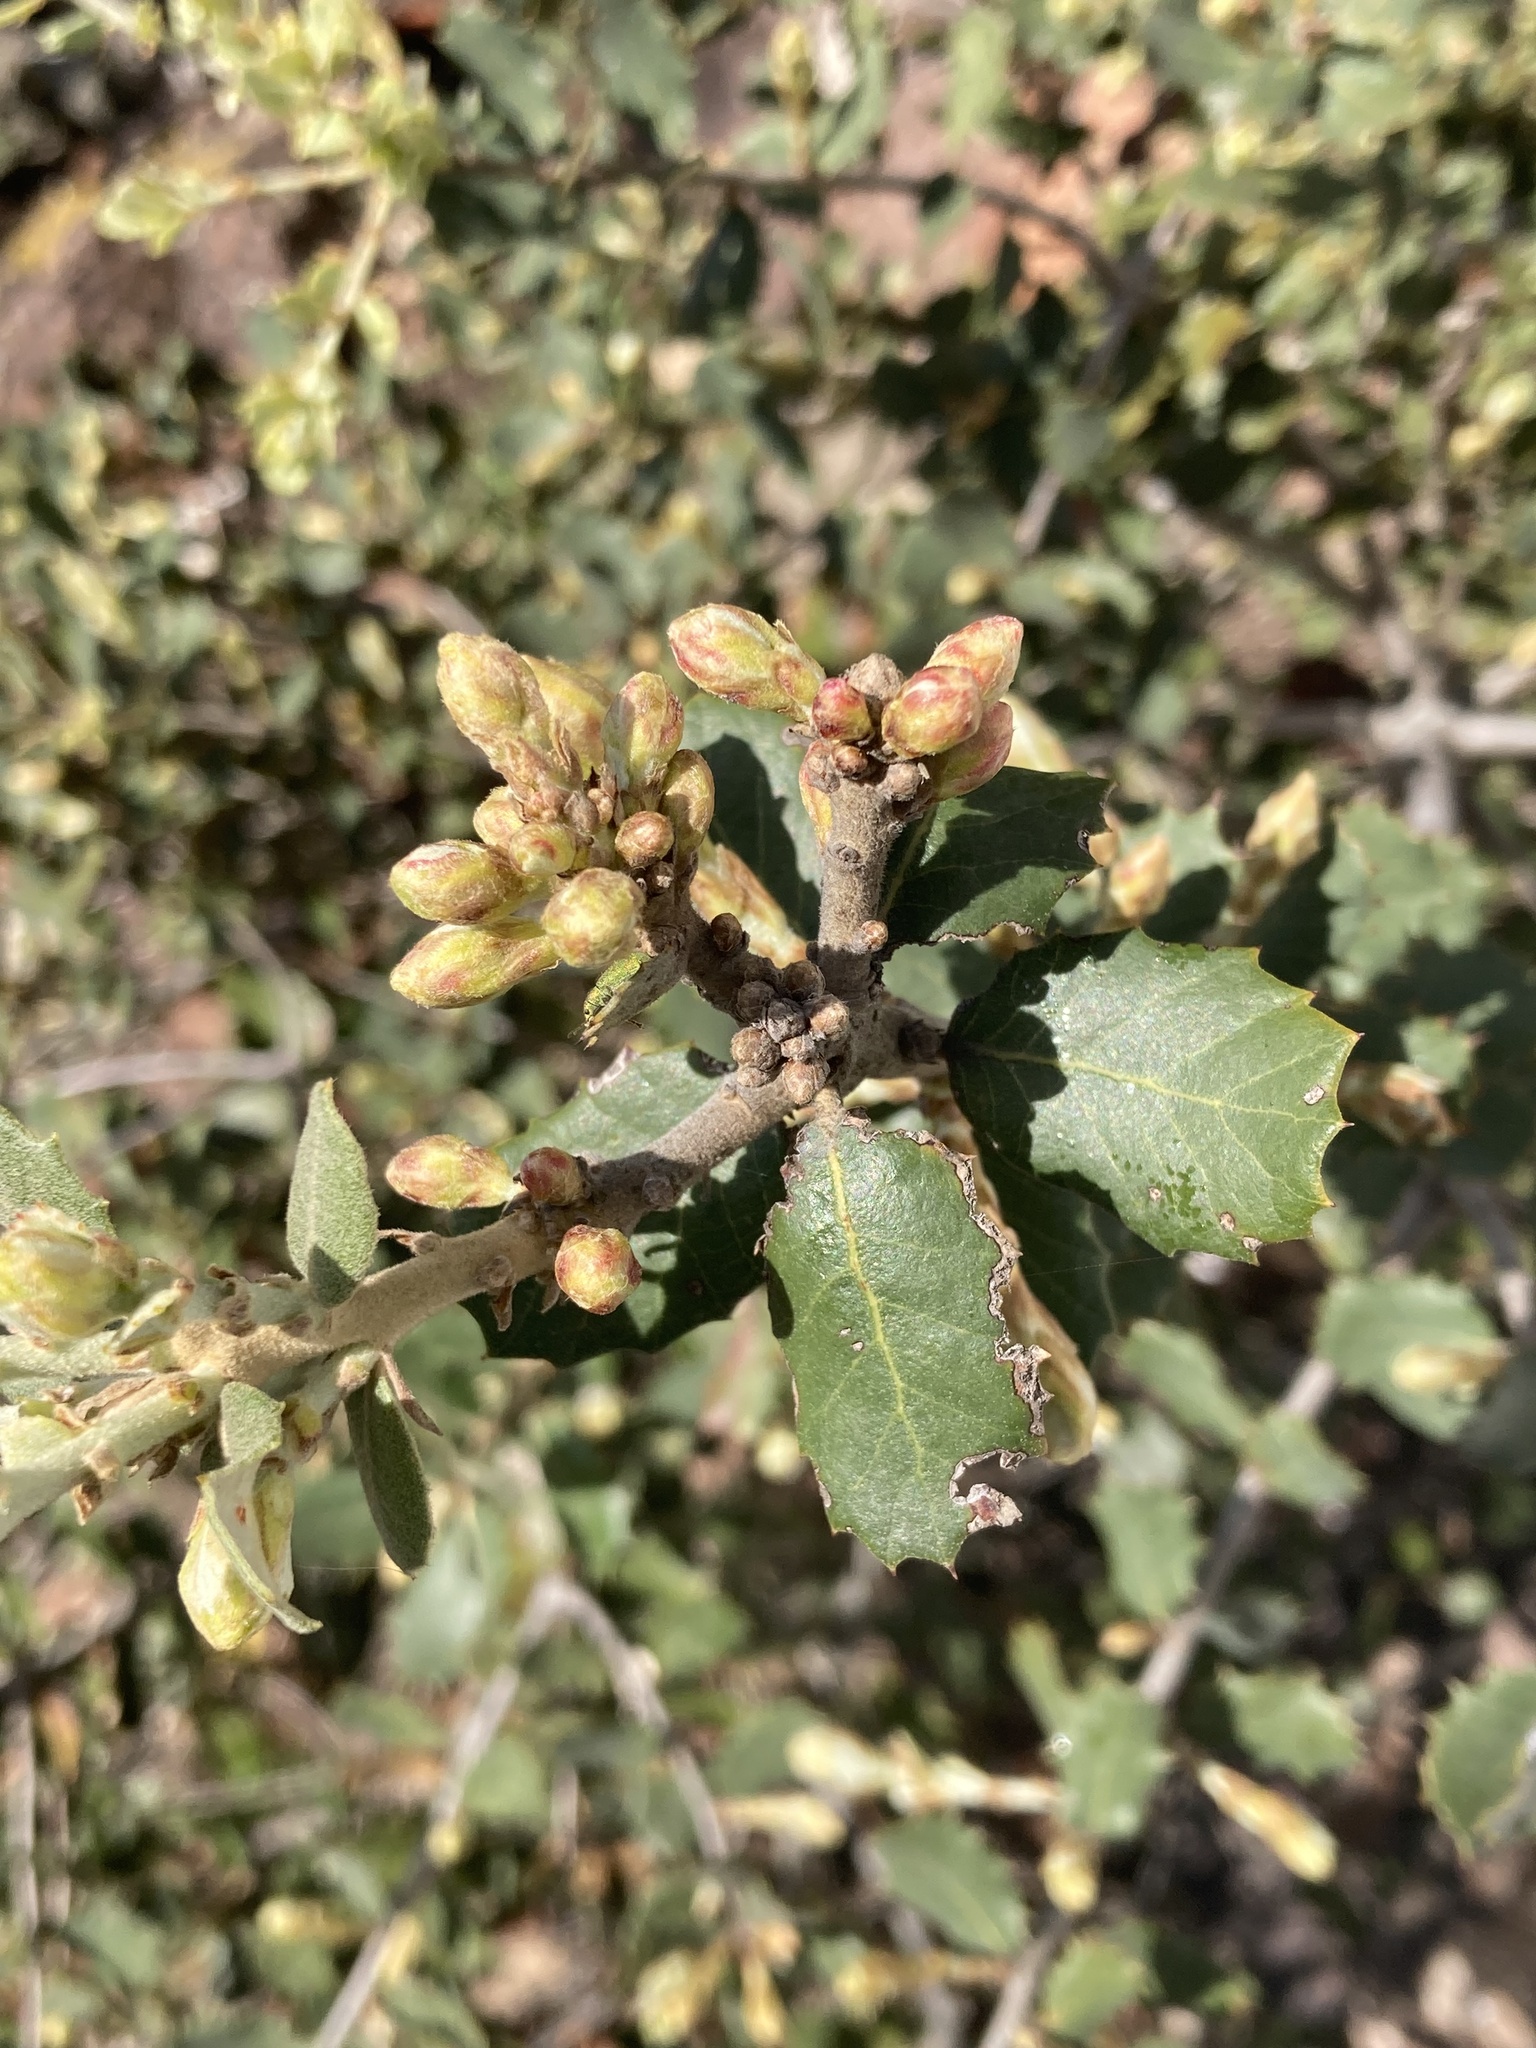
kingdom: Plantae
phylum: Tracheophyta
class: Magnoliopsida
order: Fagales
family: Fagaceae
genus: Quercus
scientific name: Quercus rotundifolia
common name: Holm oak
